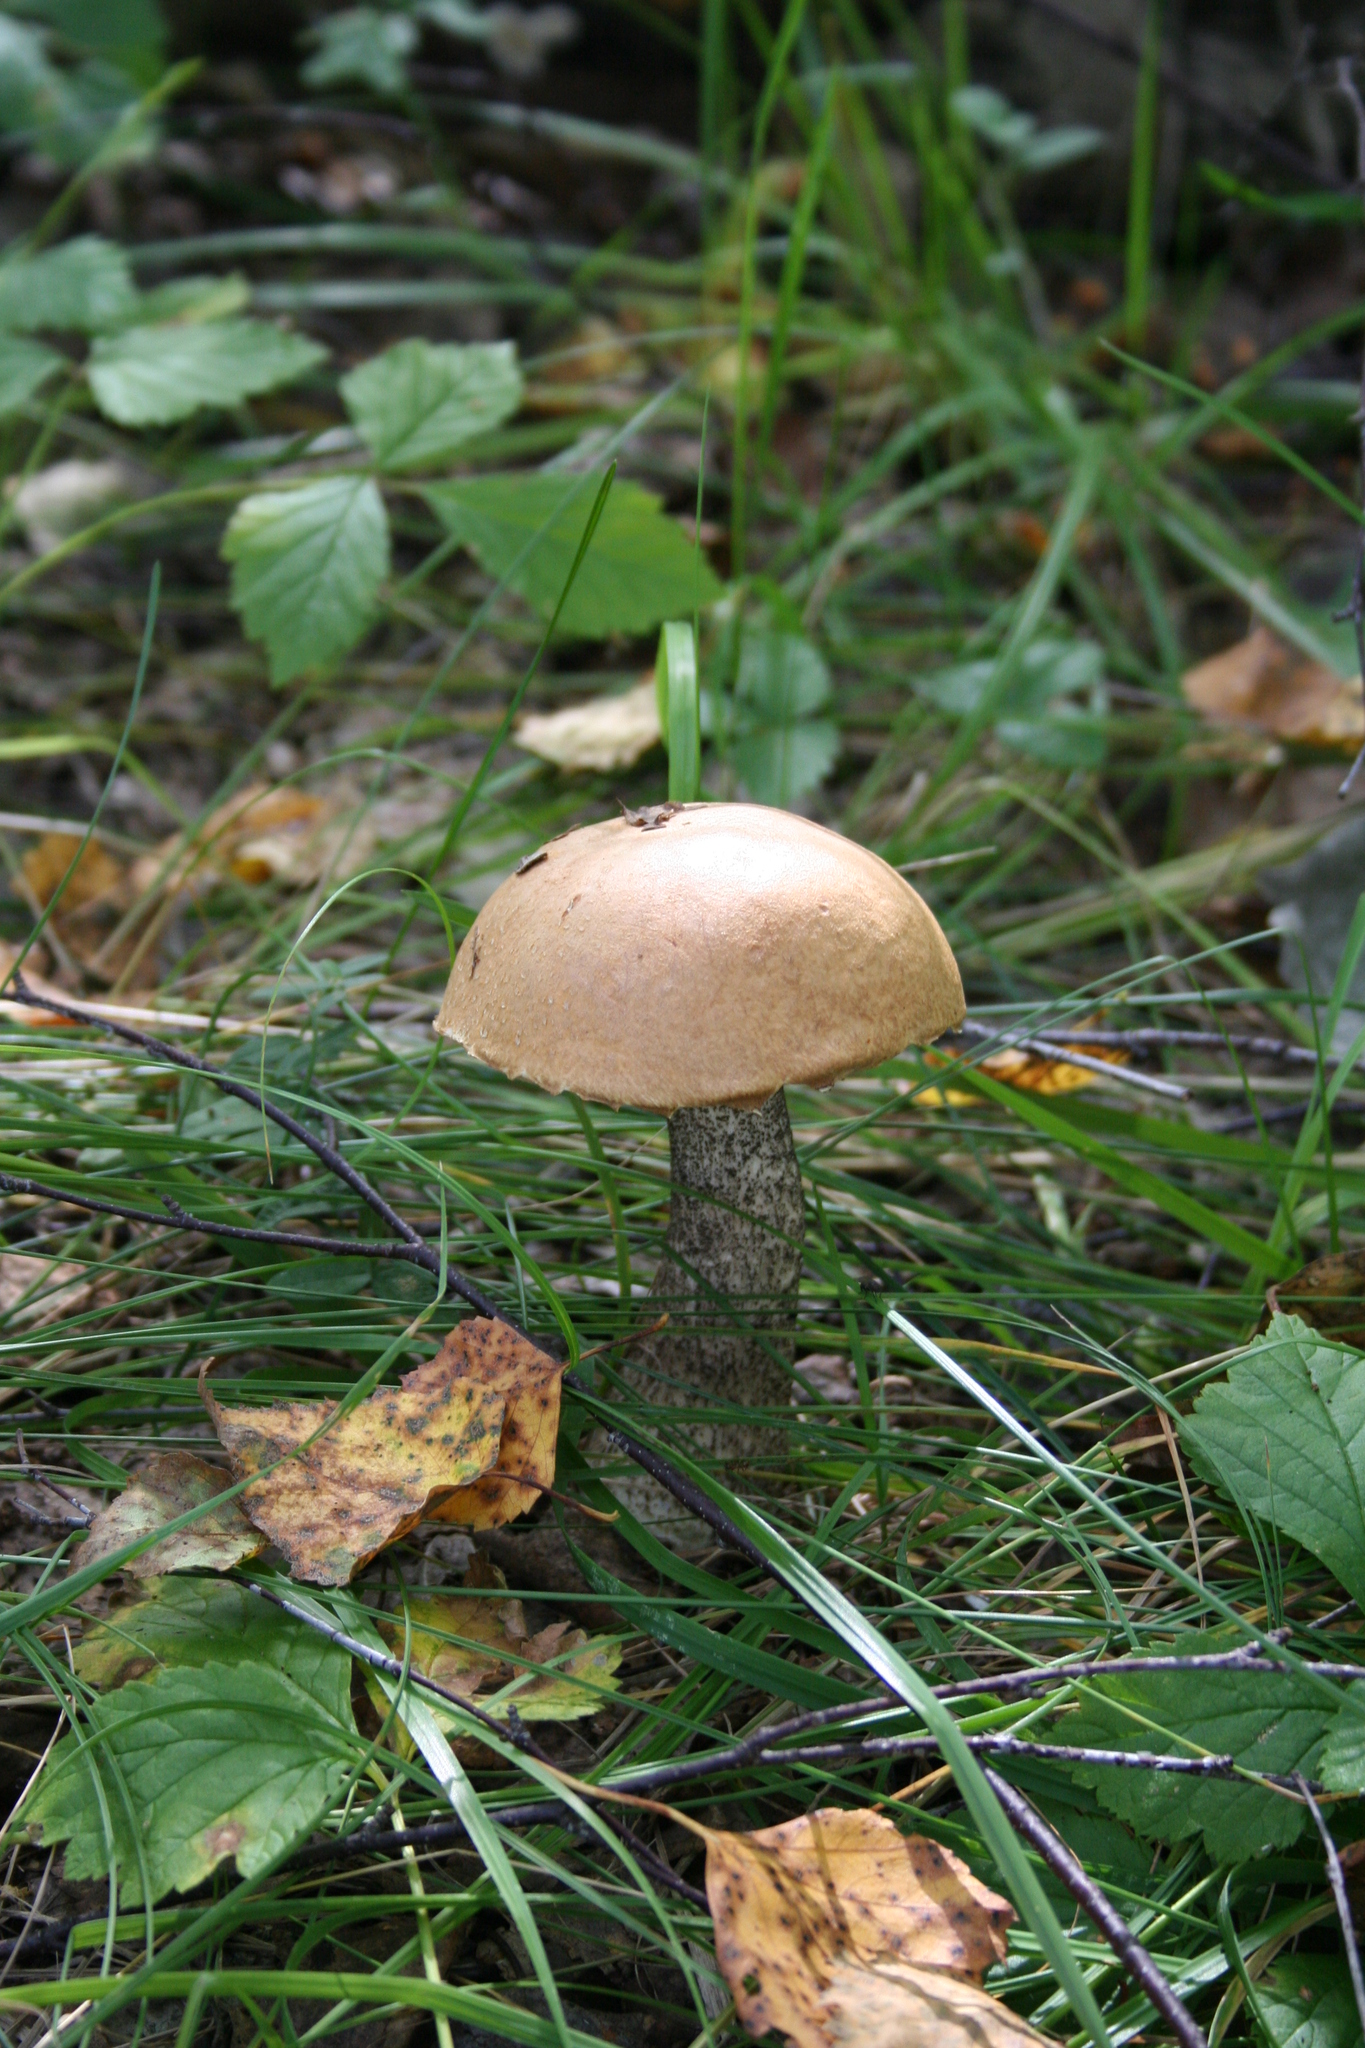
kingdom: Fungi
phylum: Basidiomycota
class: Agaricomycetes
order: Boletales
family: Boletaceae
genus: Leccinum
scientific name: Leccinum scabrum
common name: Blushing bolete
